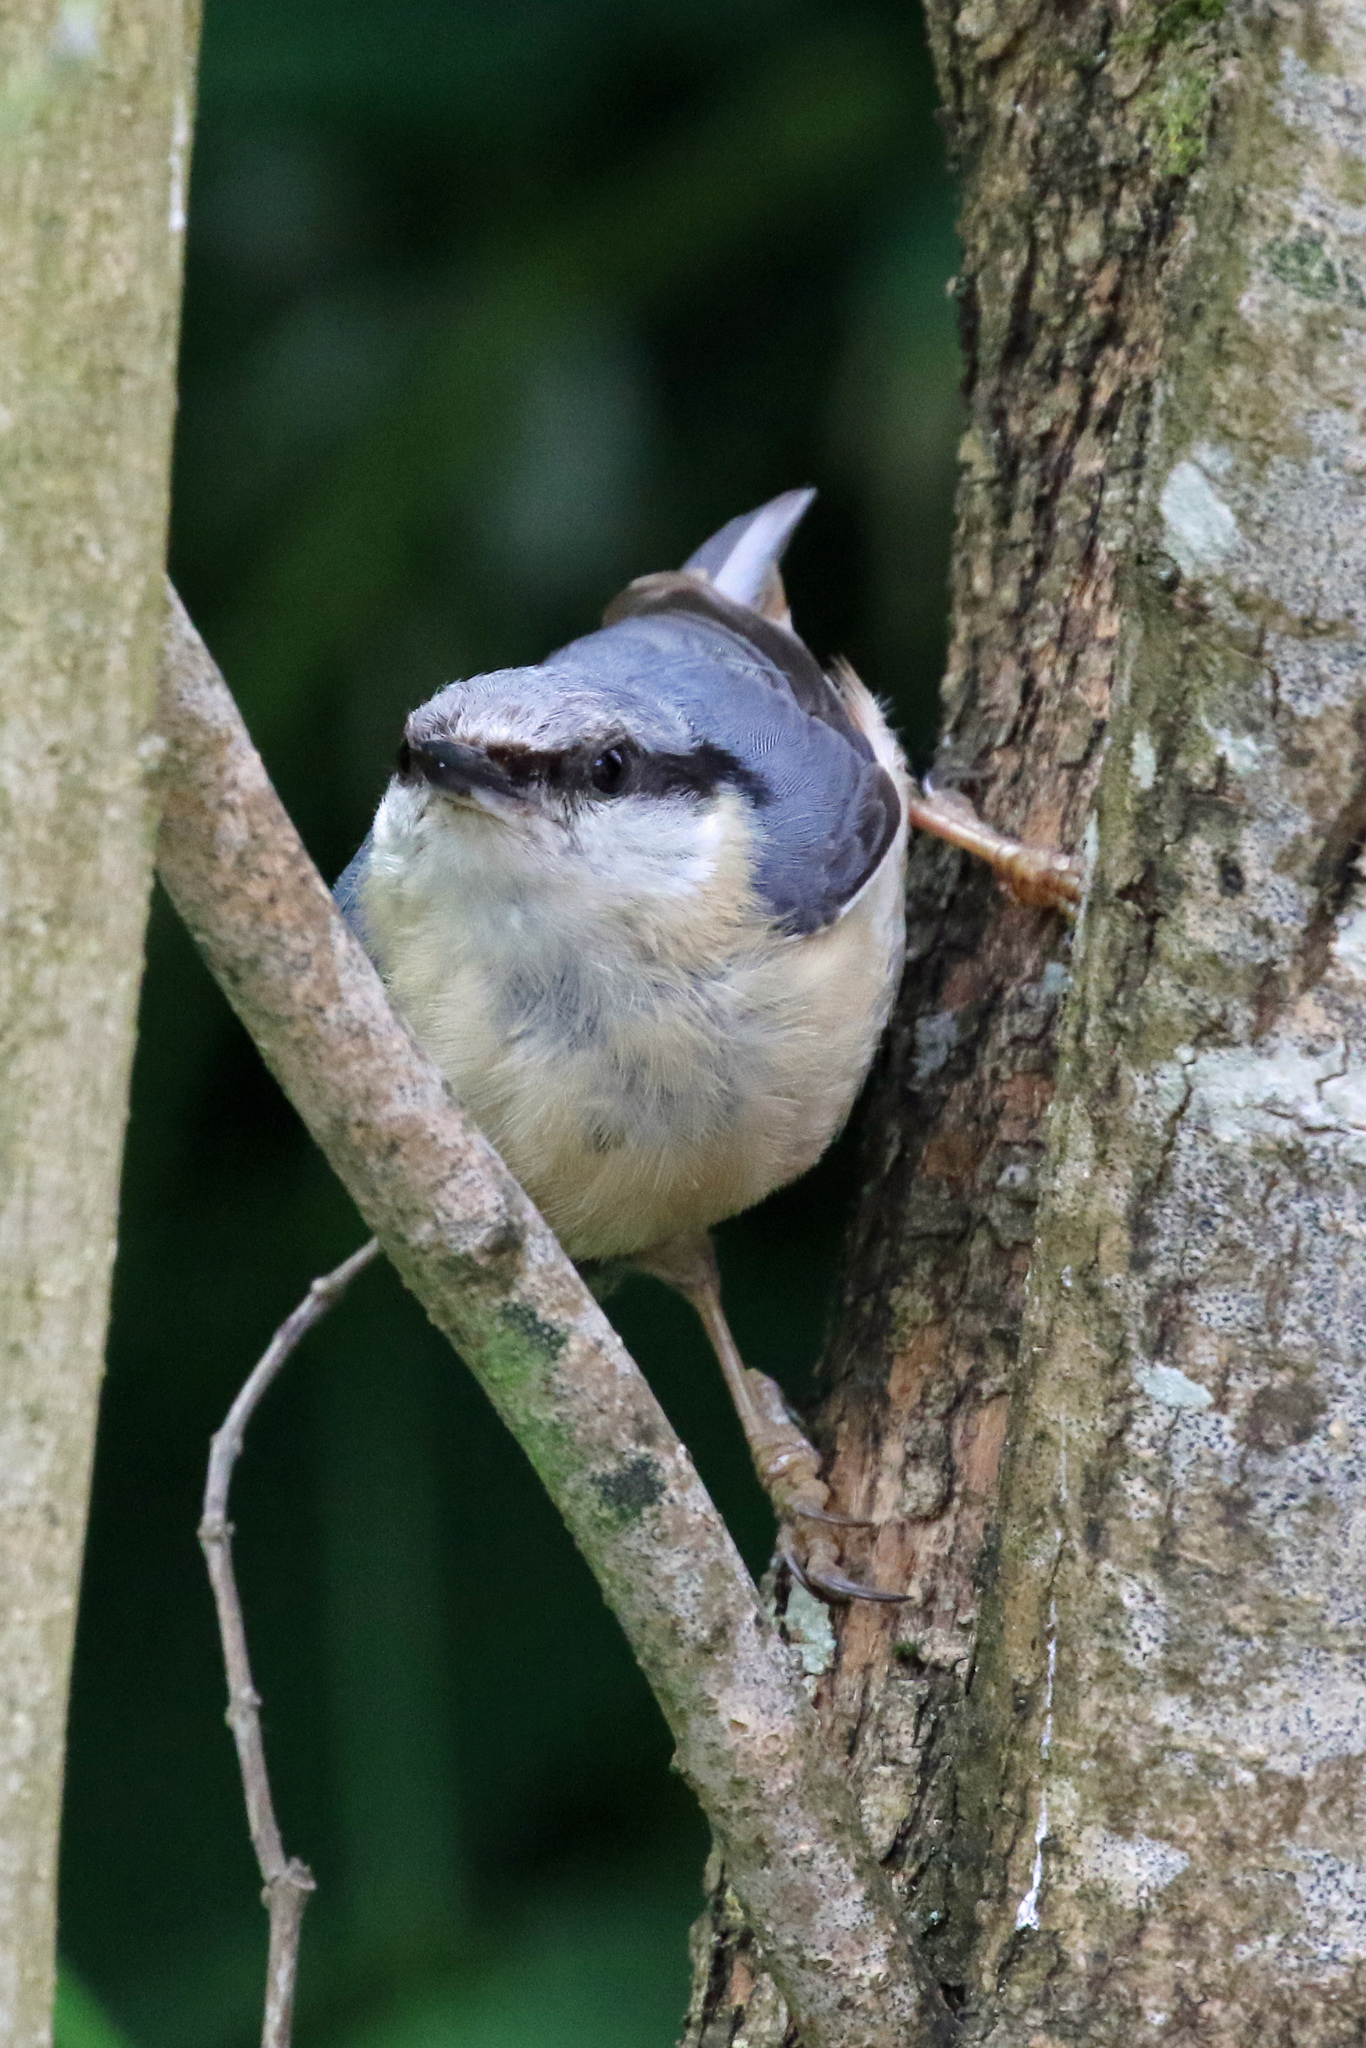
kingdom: Animalia
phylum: Chordata
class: Aves
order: Passeriformes
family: Sittidae
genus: Sitta
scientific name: Sitta europaea
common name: Eurasian nuthatch
